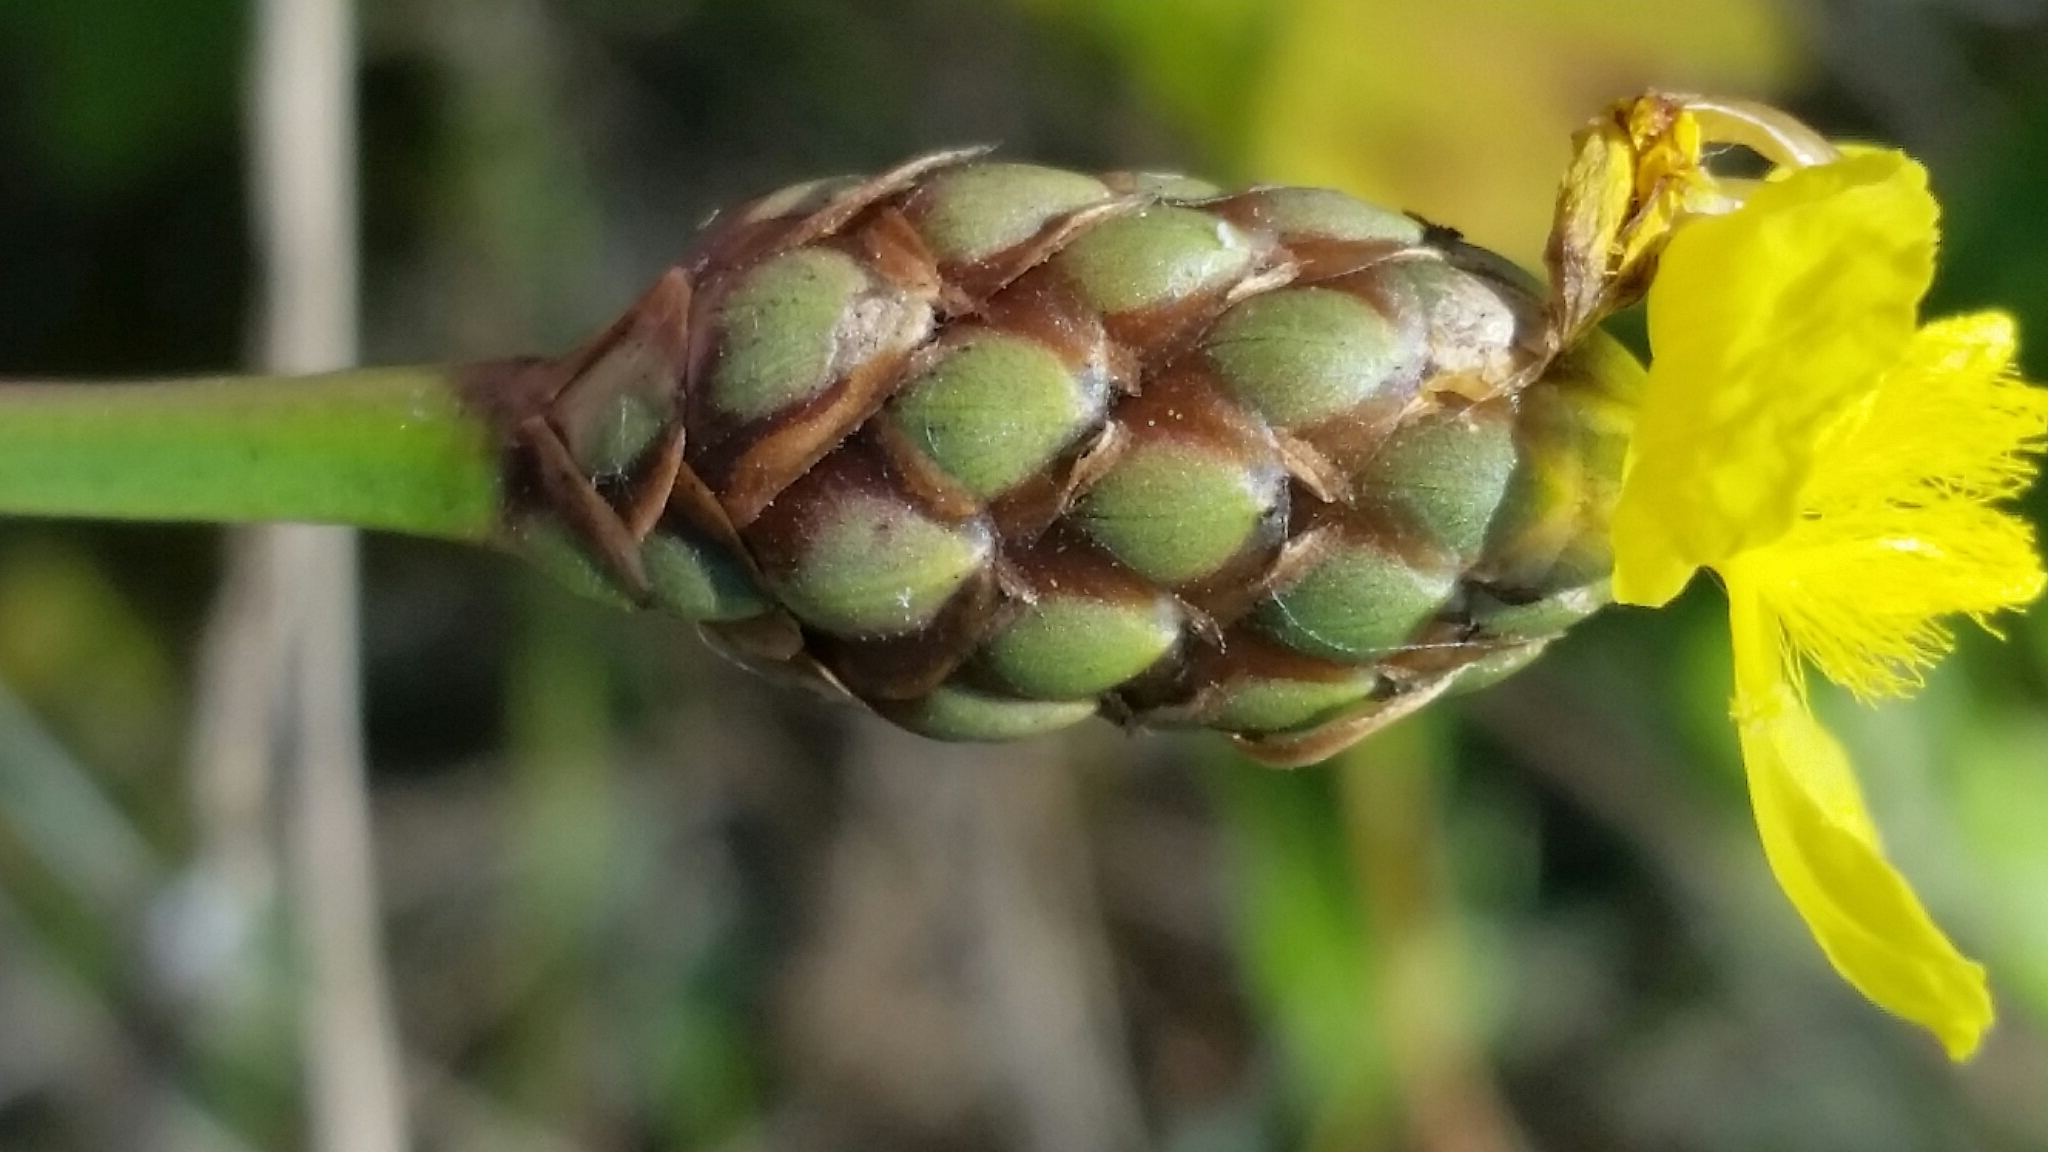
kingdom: Plantae
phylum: Tracheophyta
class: Liliopsida
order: Poales
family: Xyridaceae
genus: Xyris
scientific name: Xyris smalliana
